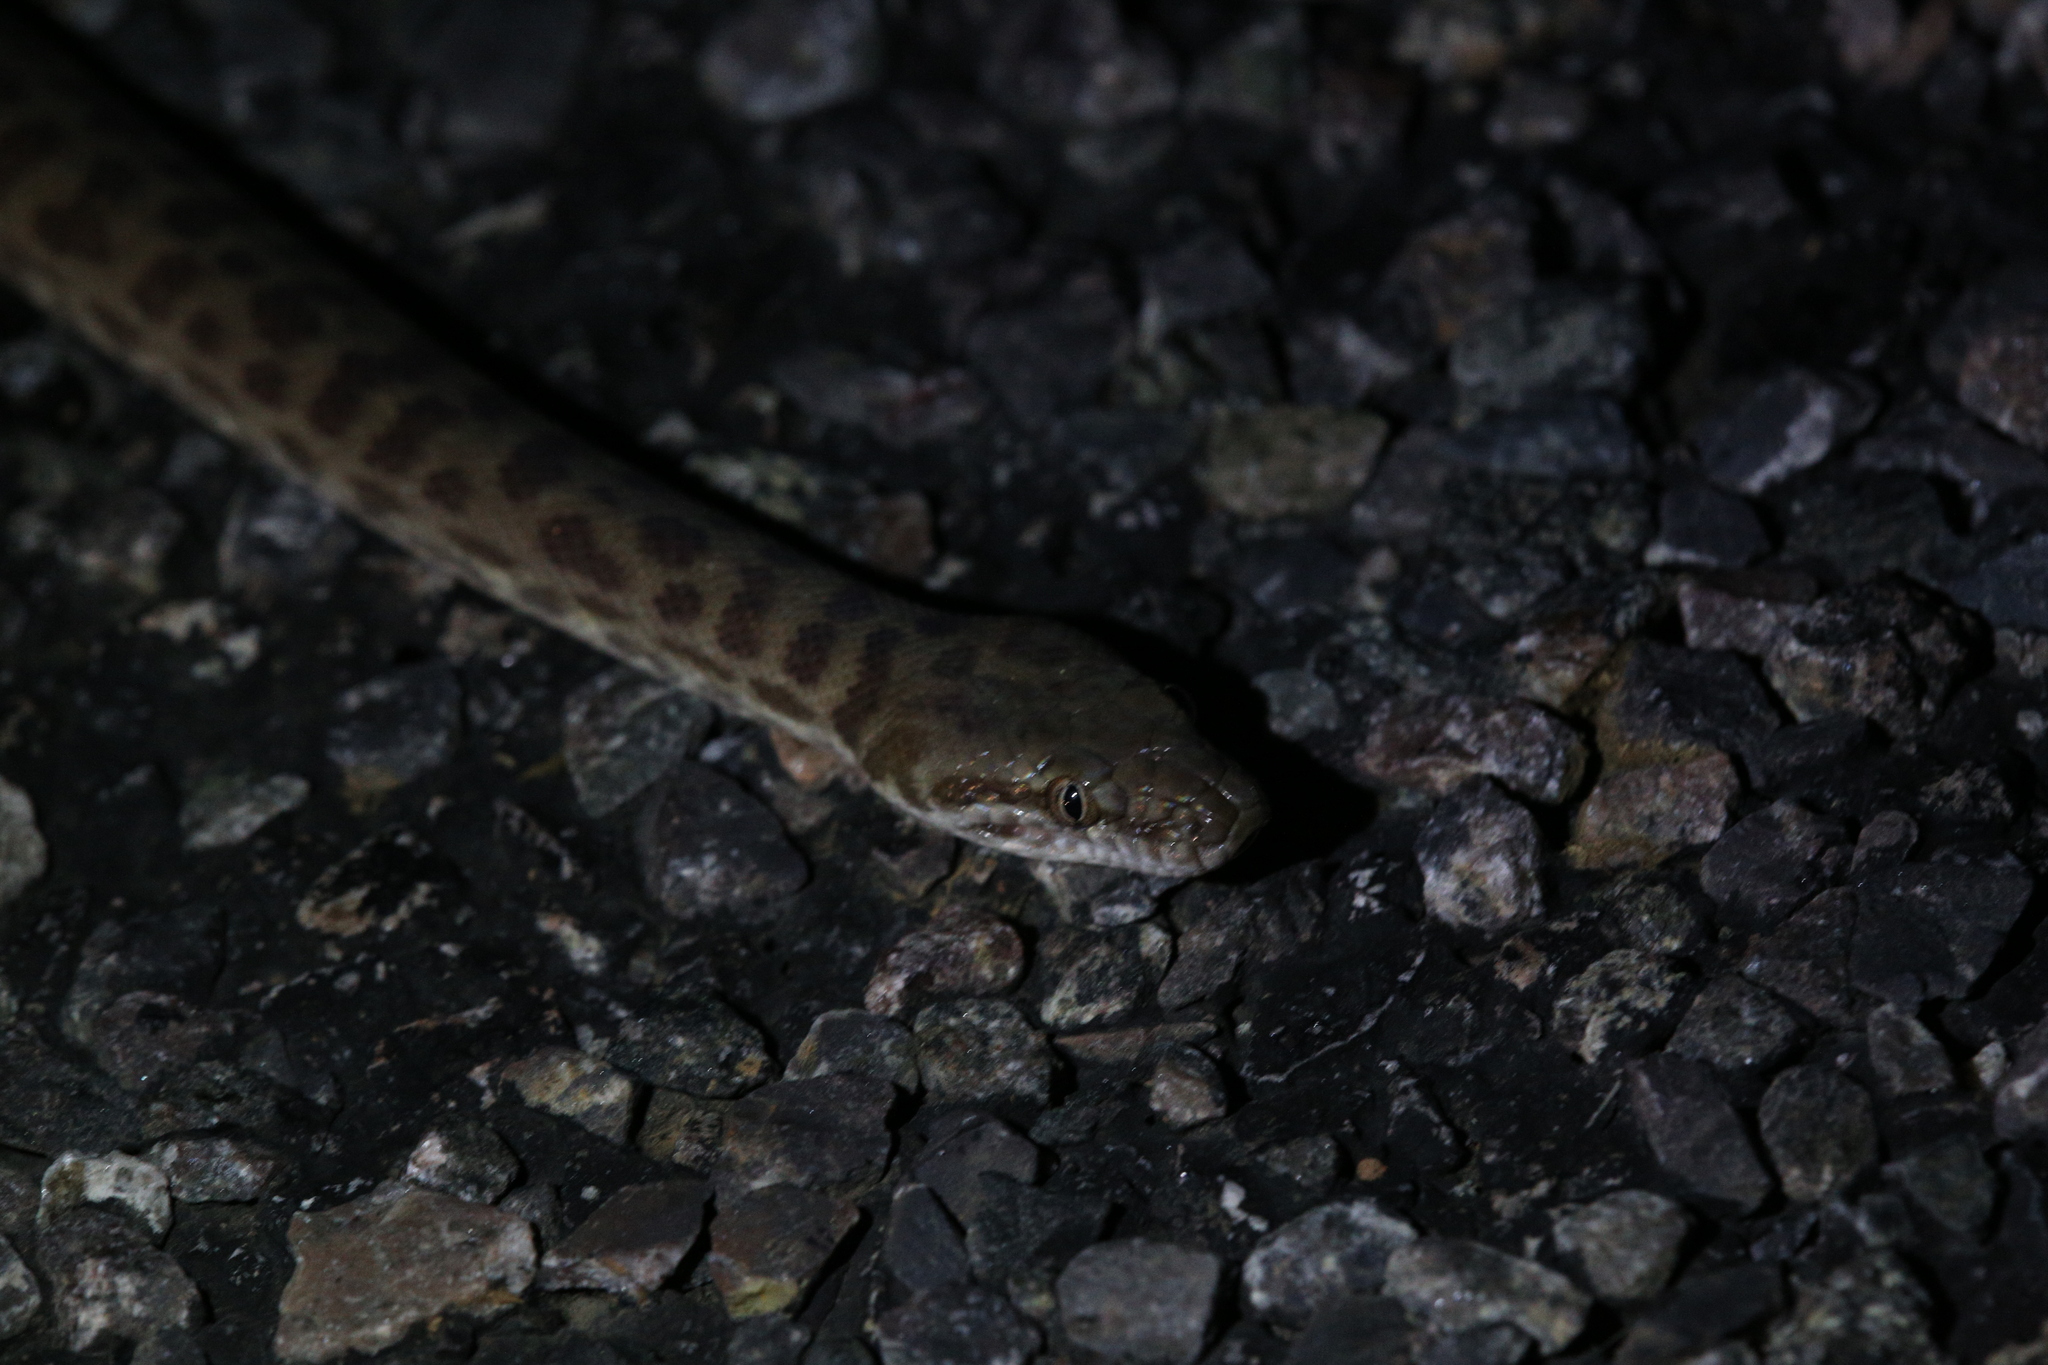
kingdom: Animalia
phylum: Chordata
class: Squamata
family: Pythonidae
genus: Antaresia
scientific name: Antaresia childreni
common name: Children's python
